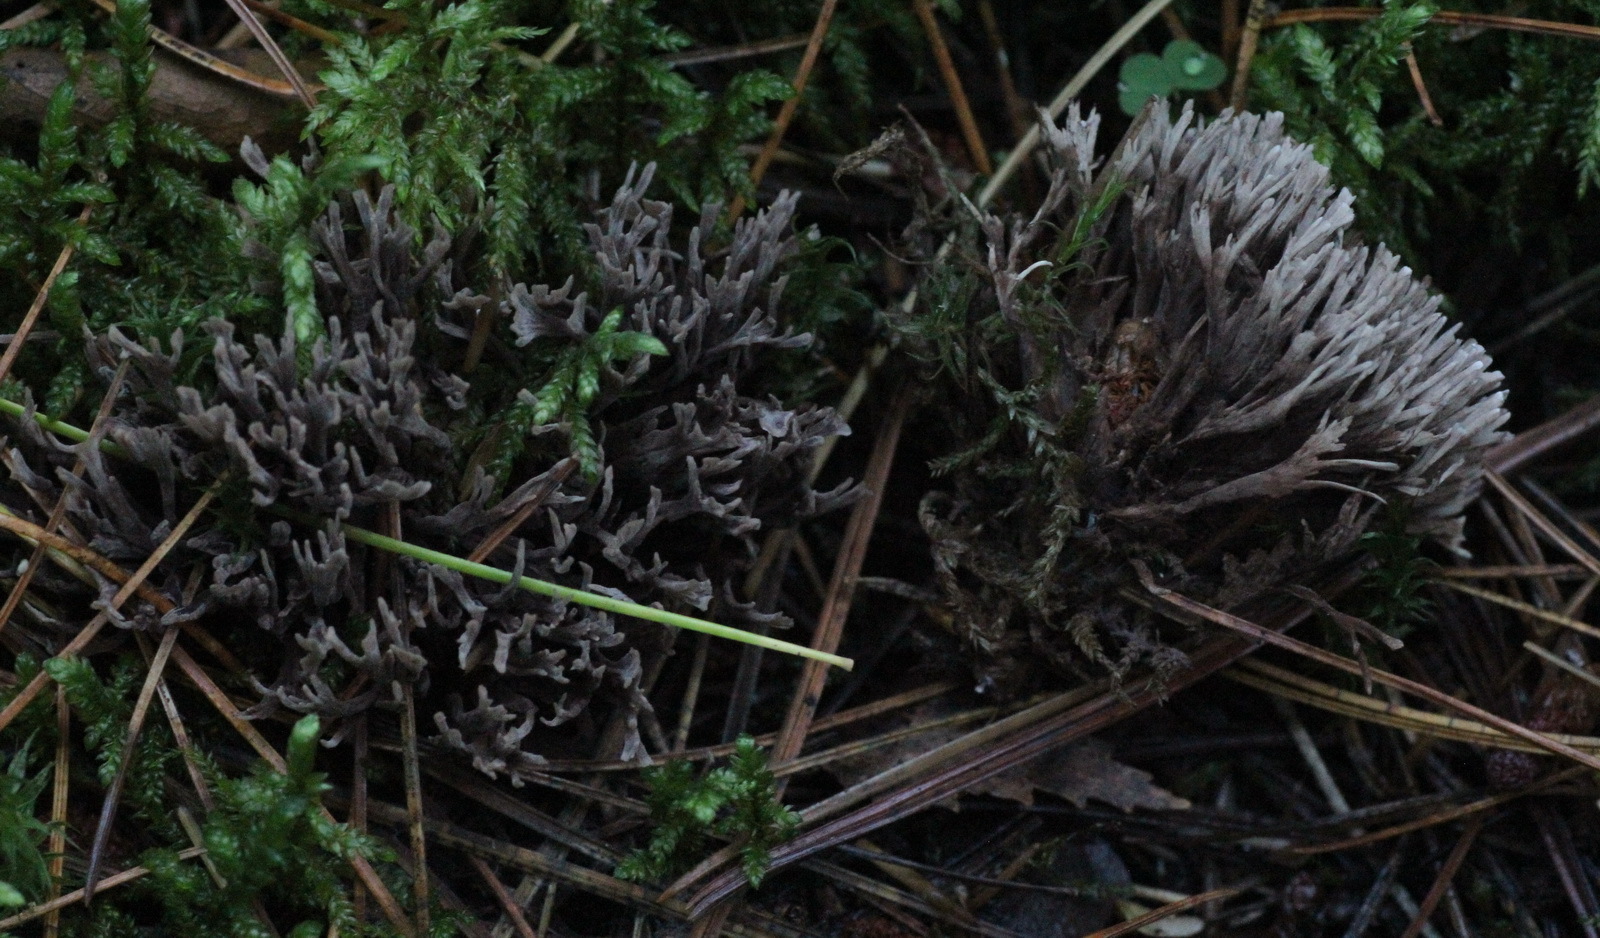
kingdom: Fungi
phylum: Basidiomycota
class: Agaricomycetes
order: Thelephorales
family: Thelephoraceae
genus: Thelephora
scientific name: Thelephora palmata
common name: Stinking earthfan
